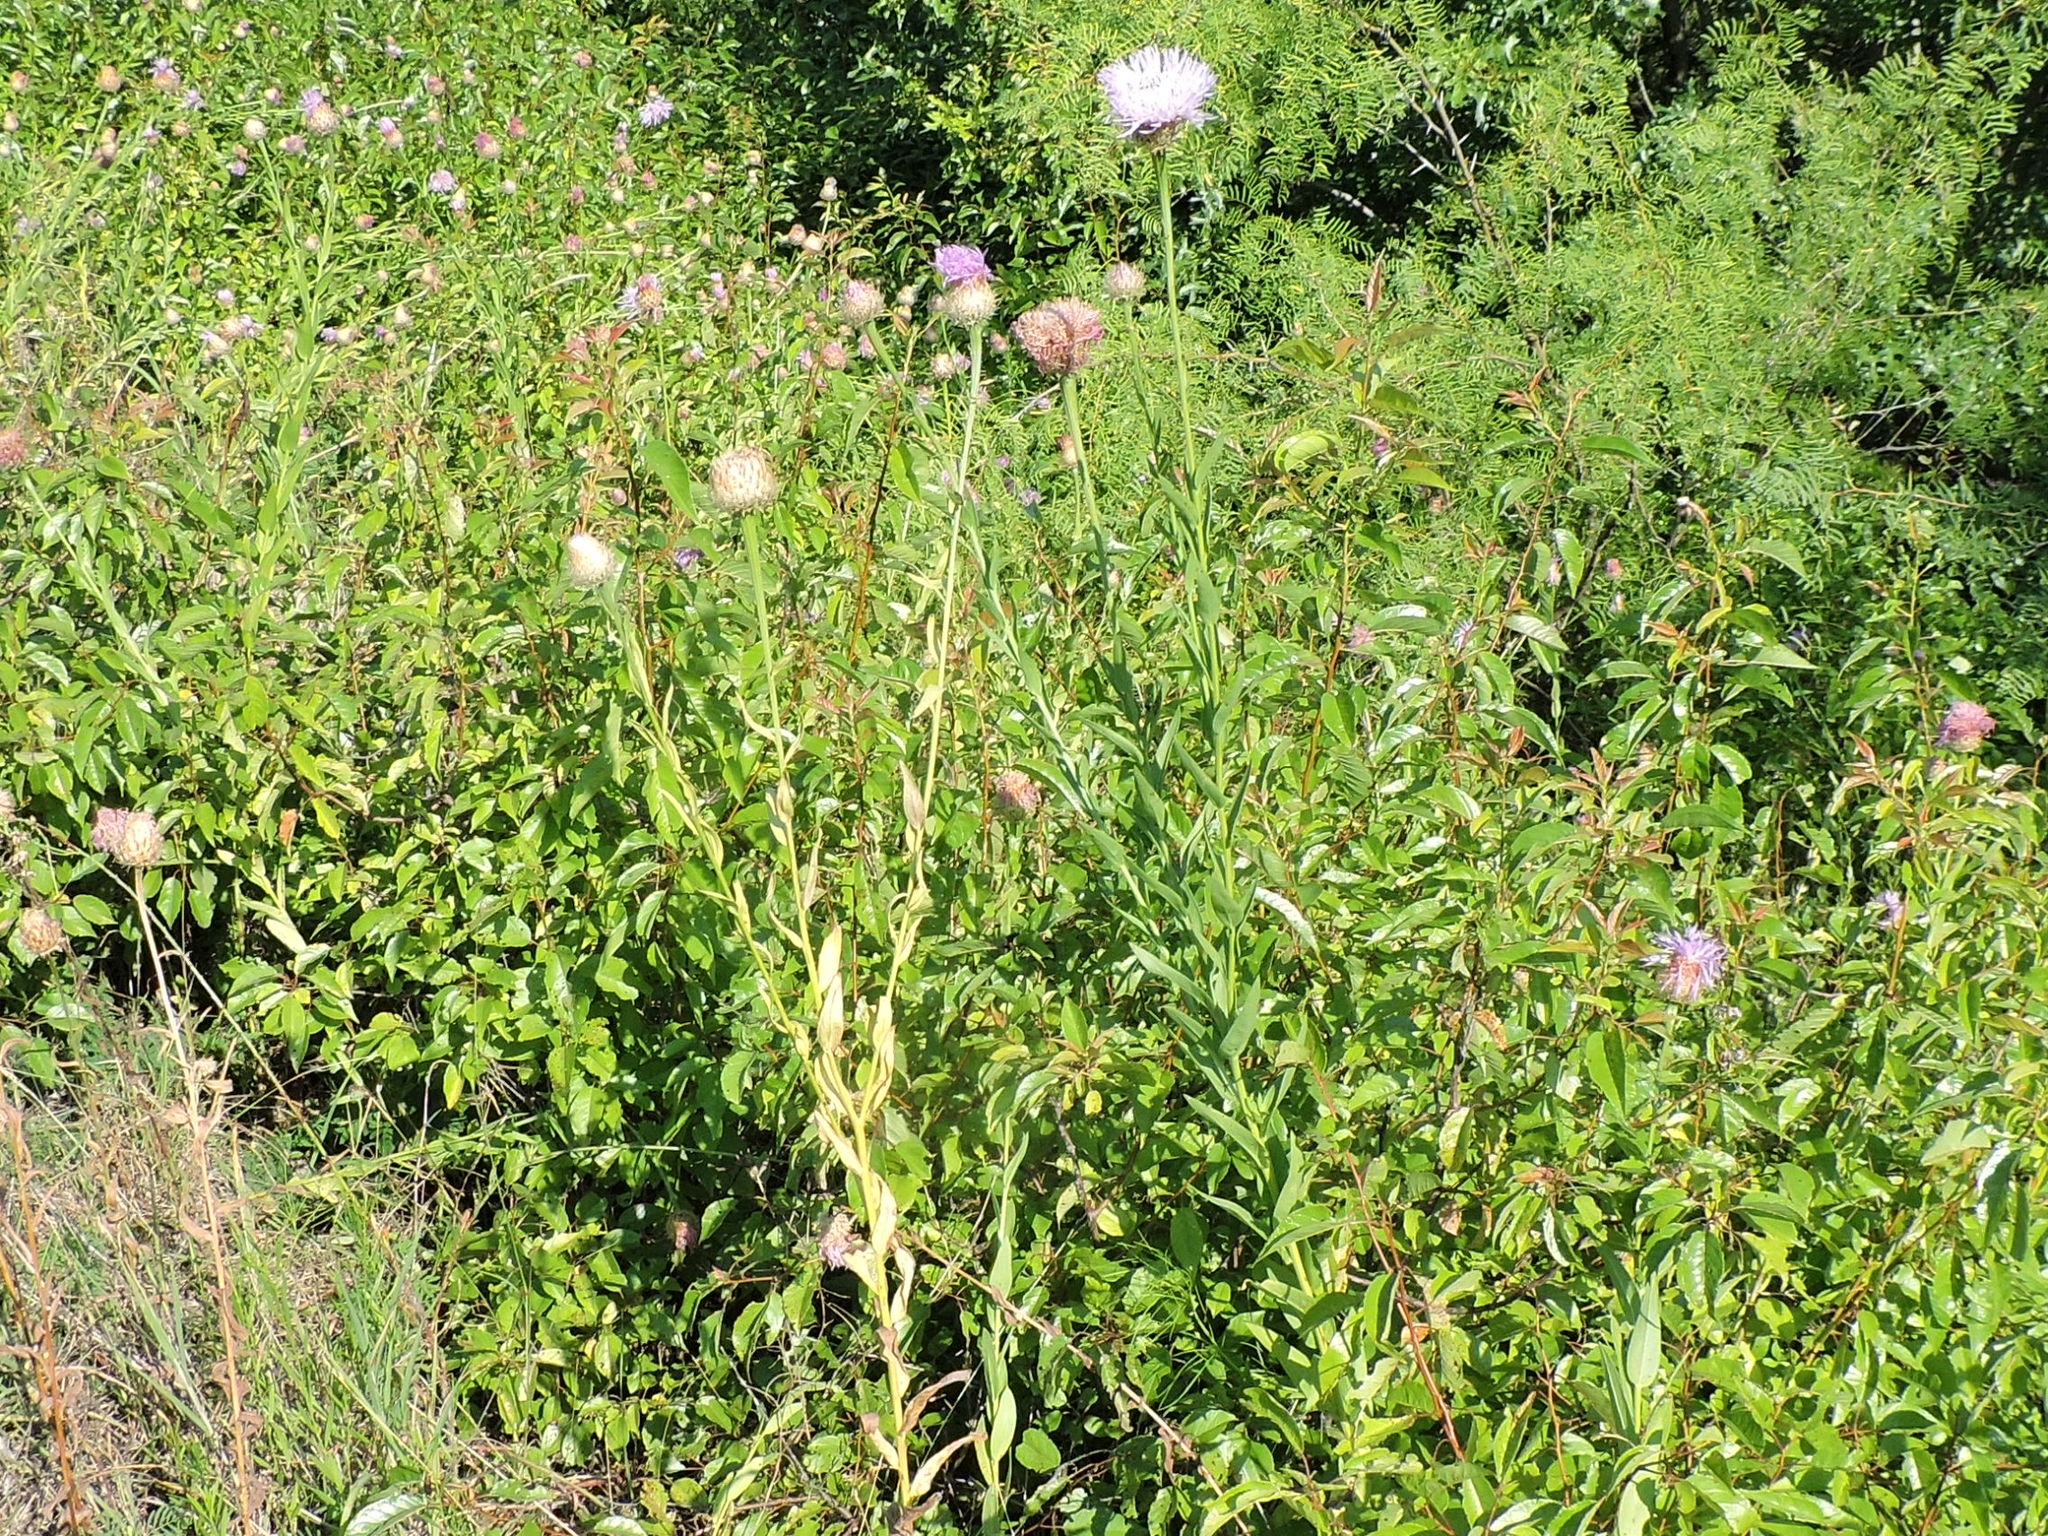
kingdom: Plantae
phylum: Tracheophyta
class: Magnoliopsida
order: Asterales
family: Asteraceae
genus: Plectocephalus
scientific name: Plectocephalus americanus
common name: American basket-flower
